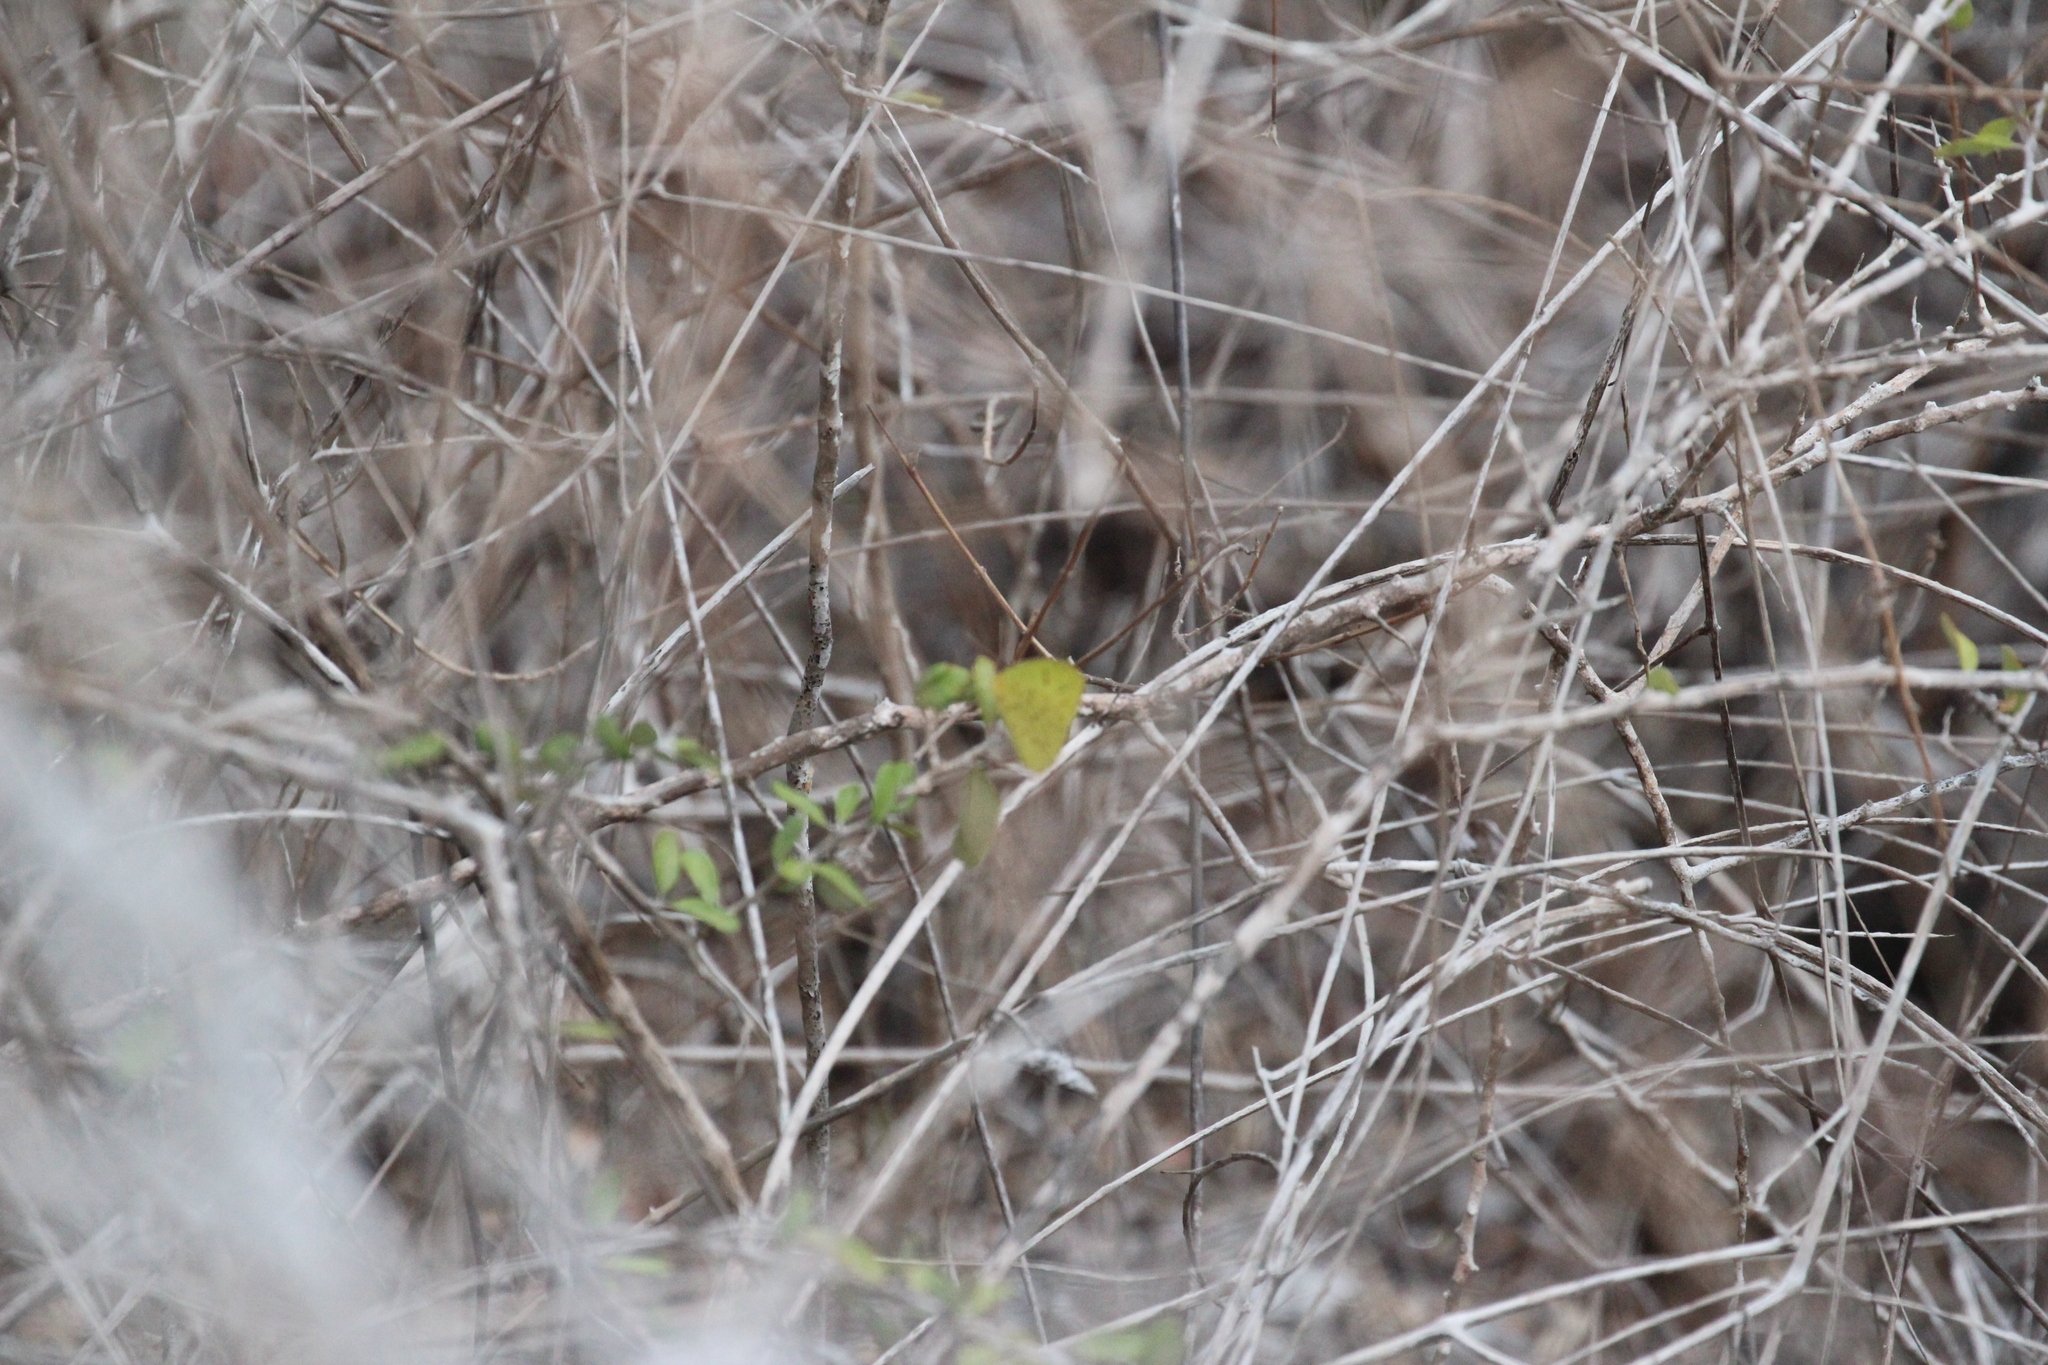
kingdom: Animalia
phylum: Arthropoda
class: Insecta
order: Lepidoptera
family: Pieridae
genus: Phoebis
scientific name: Phoebis marcellina
